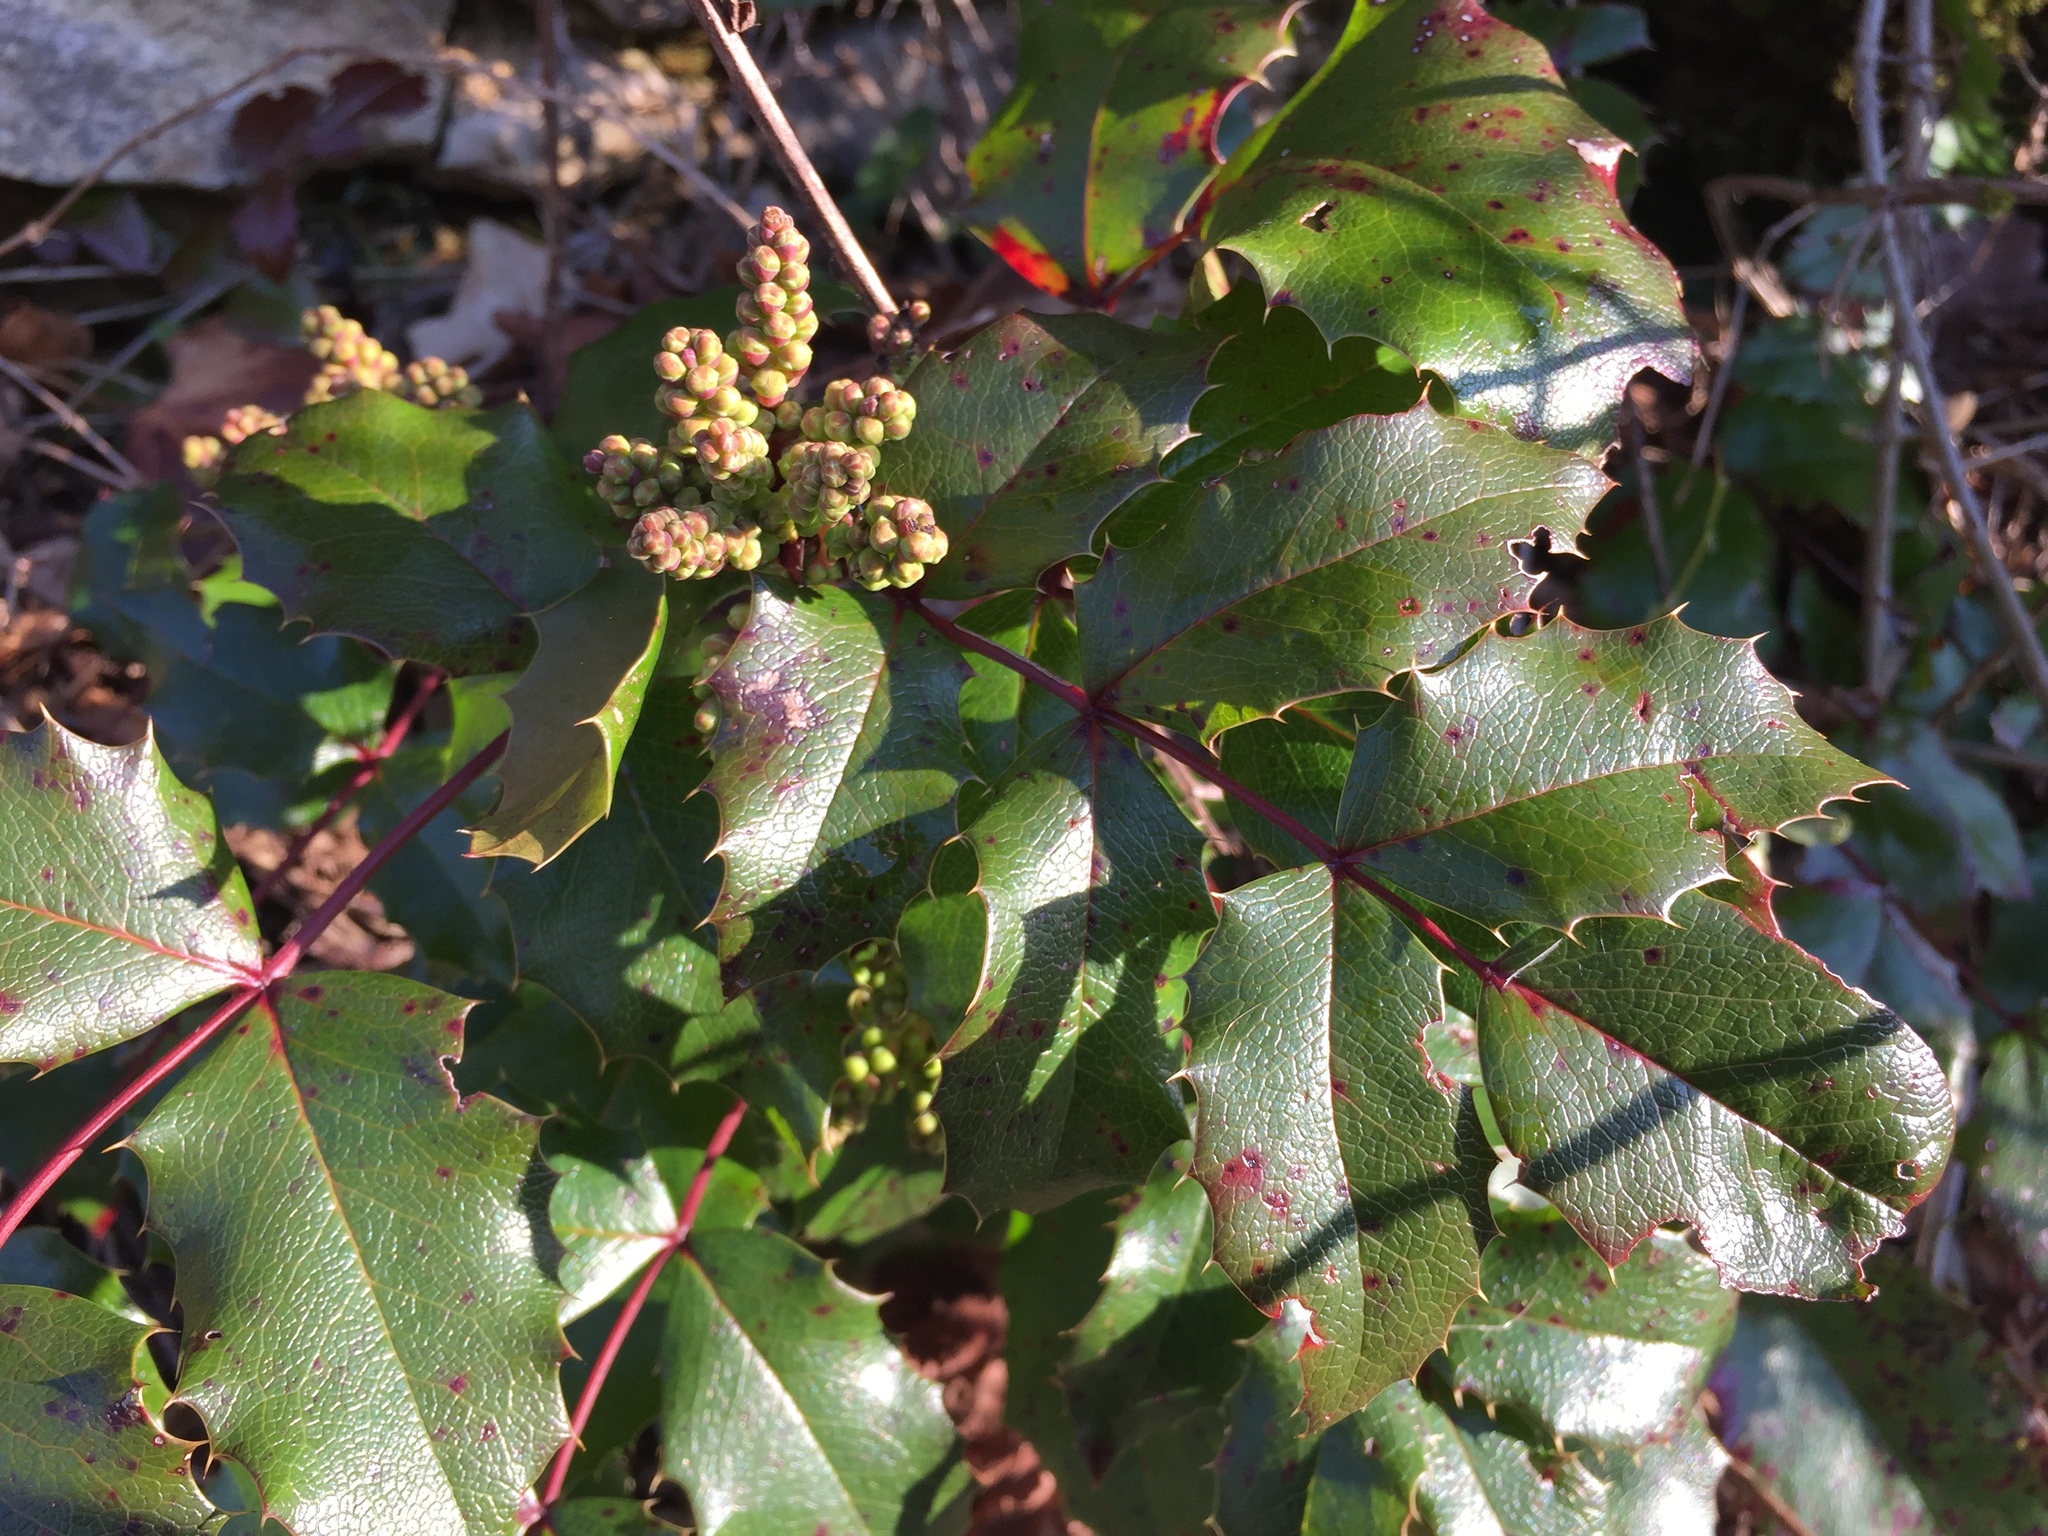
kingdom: Plantae
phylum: Tracheophyta
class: Magnoliopsida
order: Ranunculales
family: Berberidaceae
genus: Mahonia
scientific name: Mahonia aquifolium
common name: Oregon-grape
